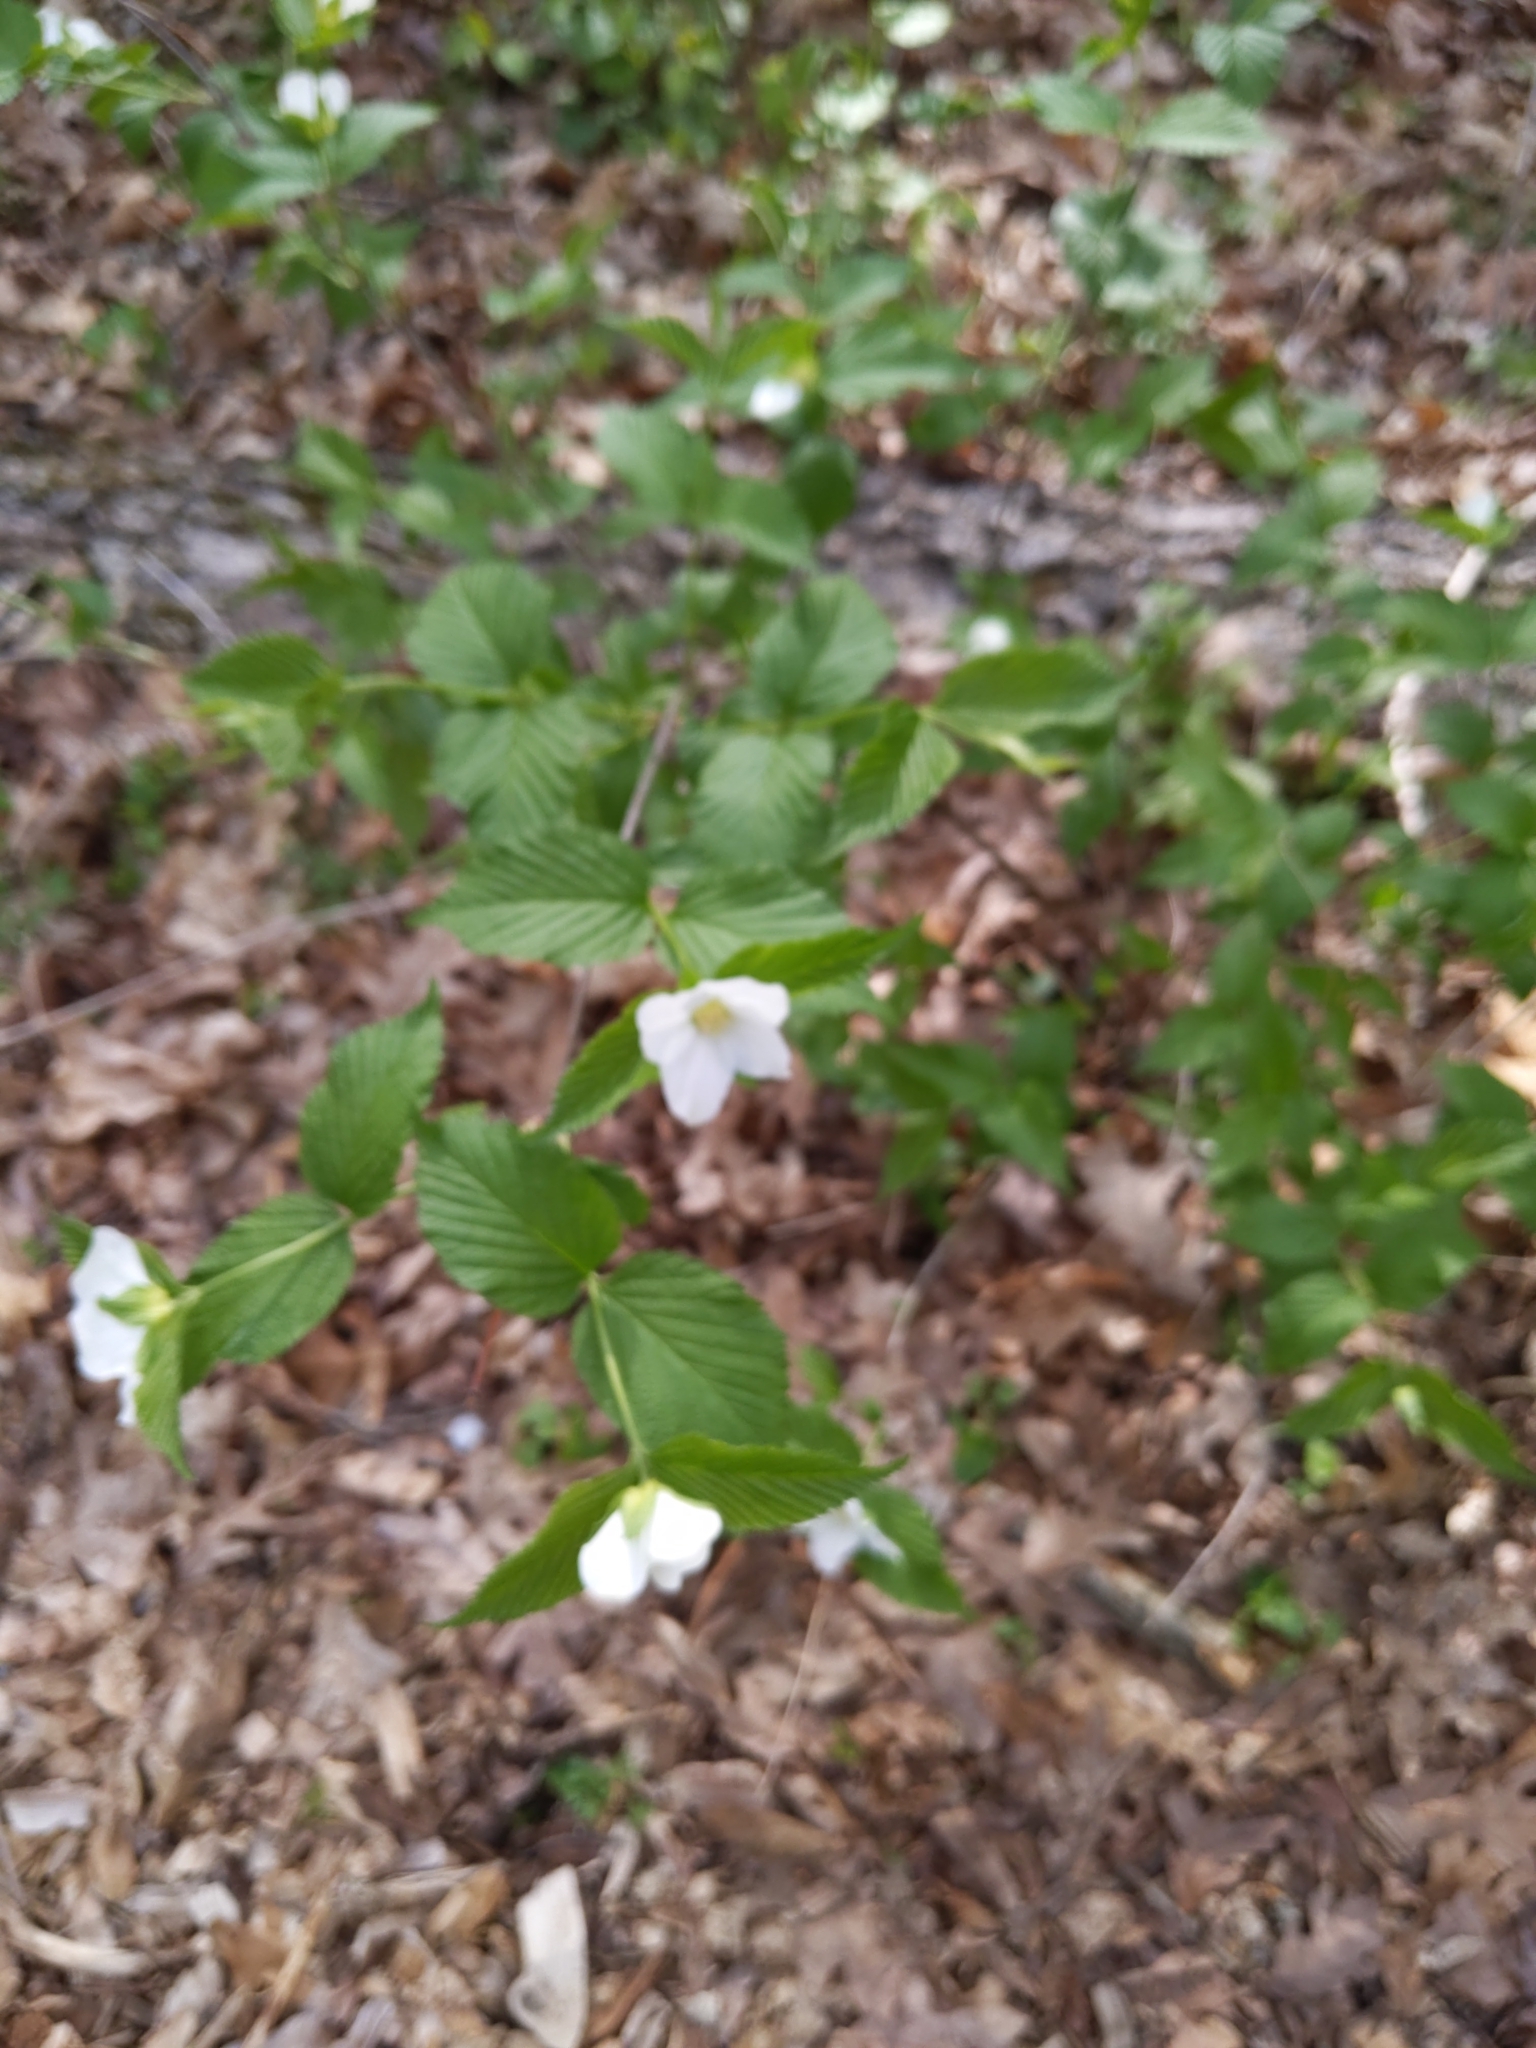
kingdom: Plantae
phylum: Tracheophyta
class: Magnoliopsida
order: Rosales
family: Rosaceae
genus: Rhodotypos
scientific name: Rhodotypos scandens
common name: Jetbead
